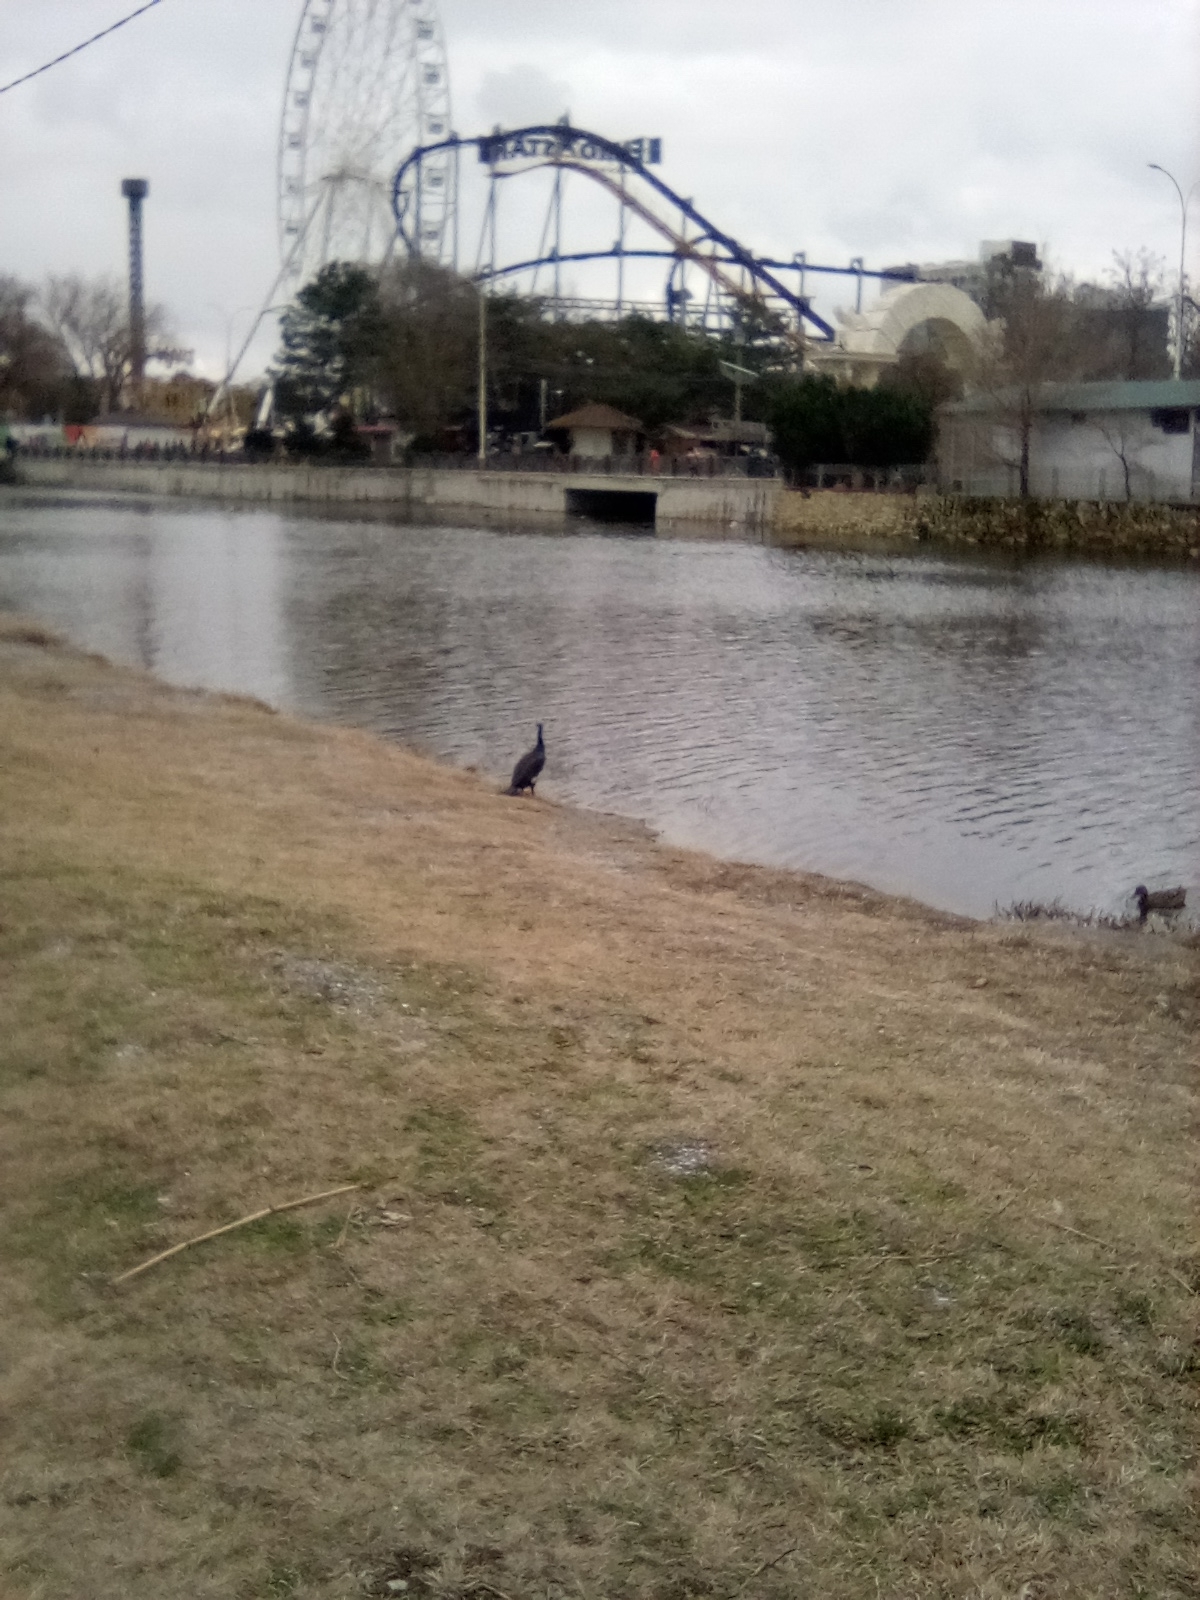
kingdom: Animalia
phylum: Chordata
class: Aves
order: Suliformes
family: Phalacrocoracidae
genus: Phalacrocorax
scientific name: Phalacrocorax carbo
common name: Great cormorant
